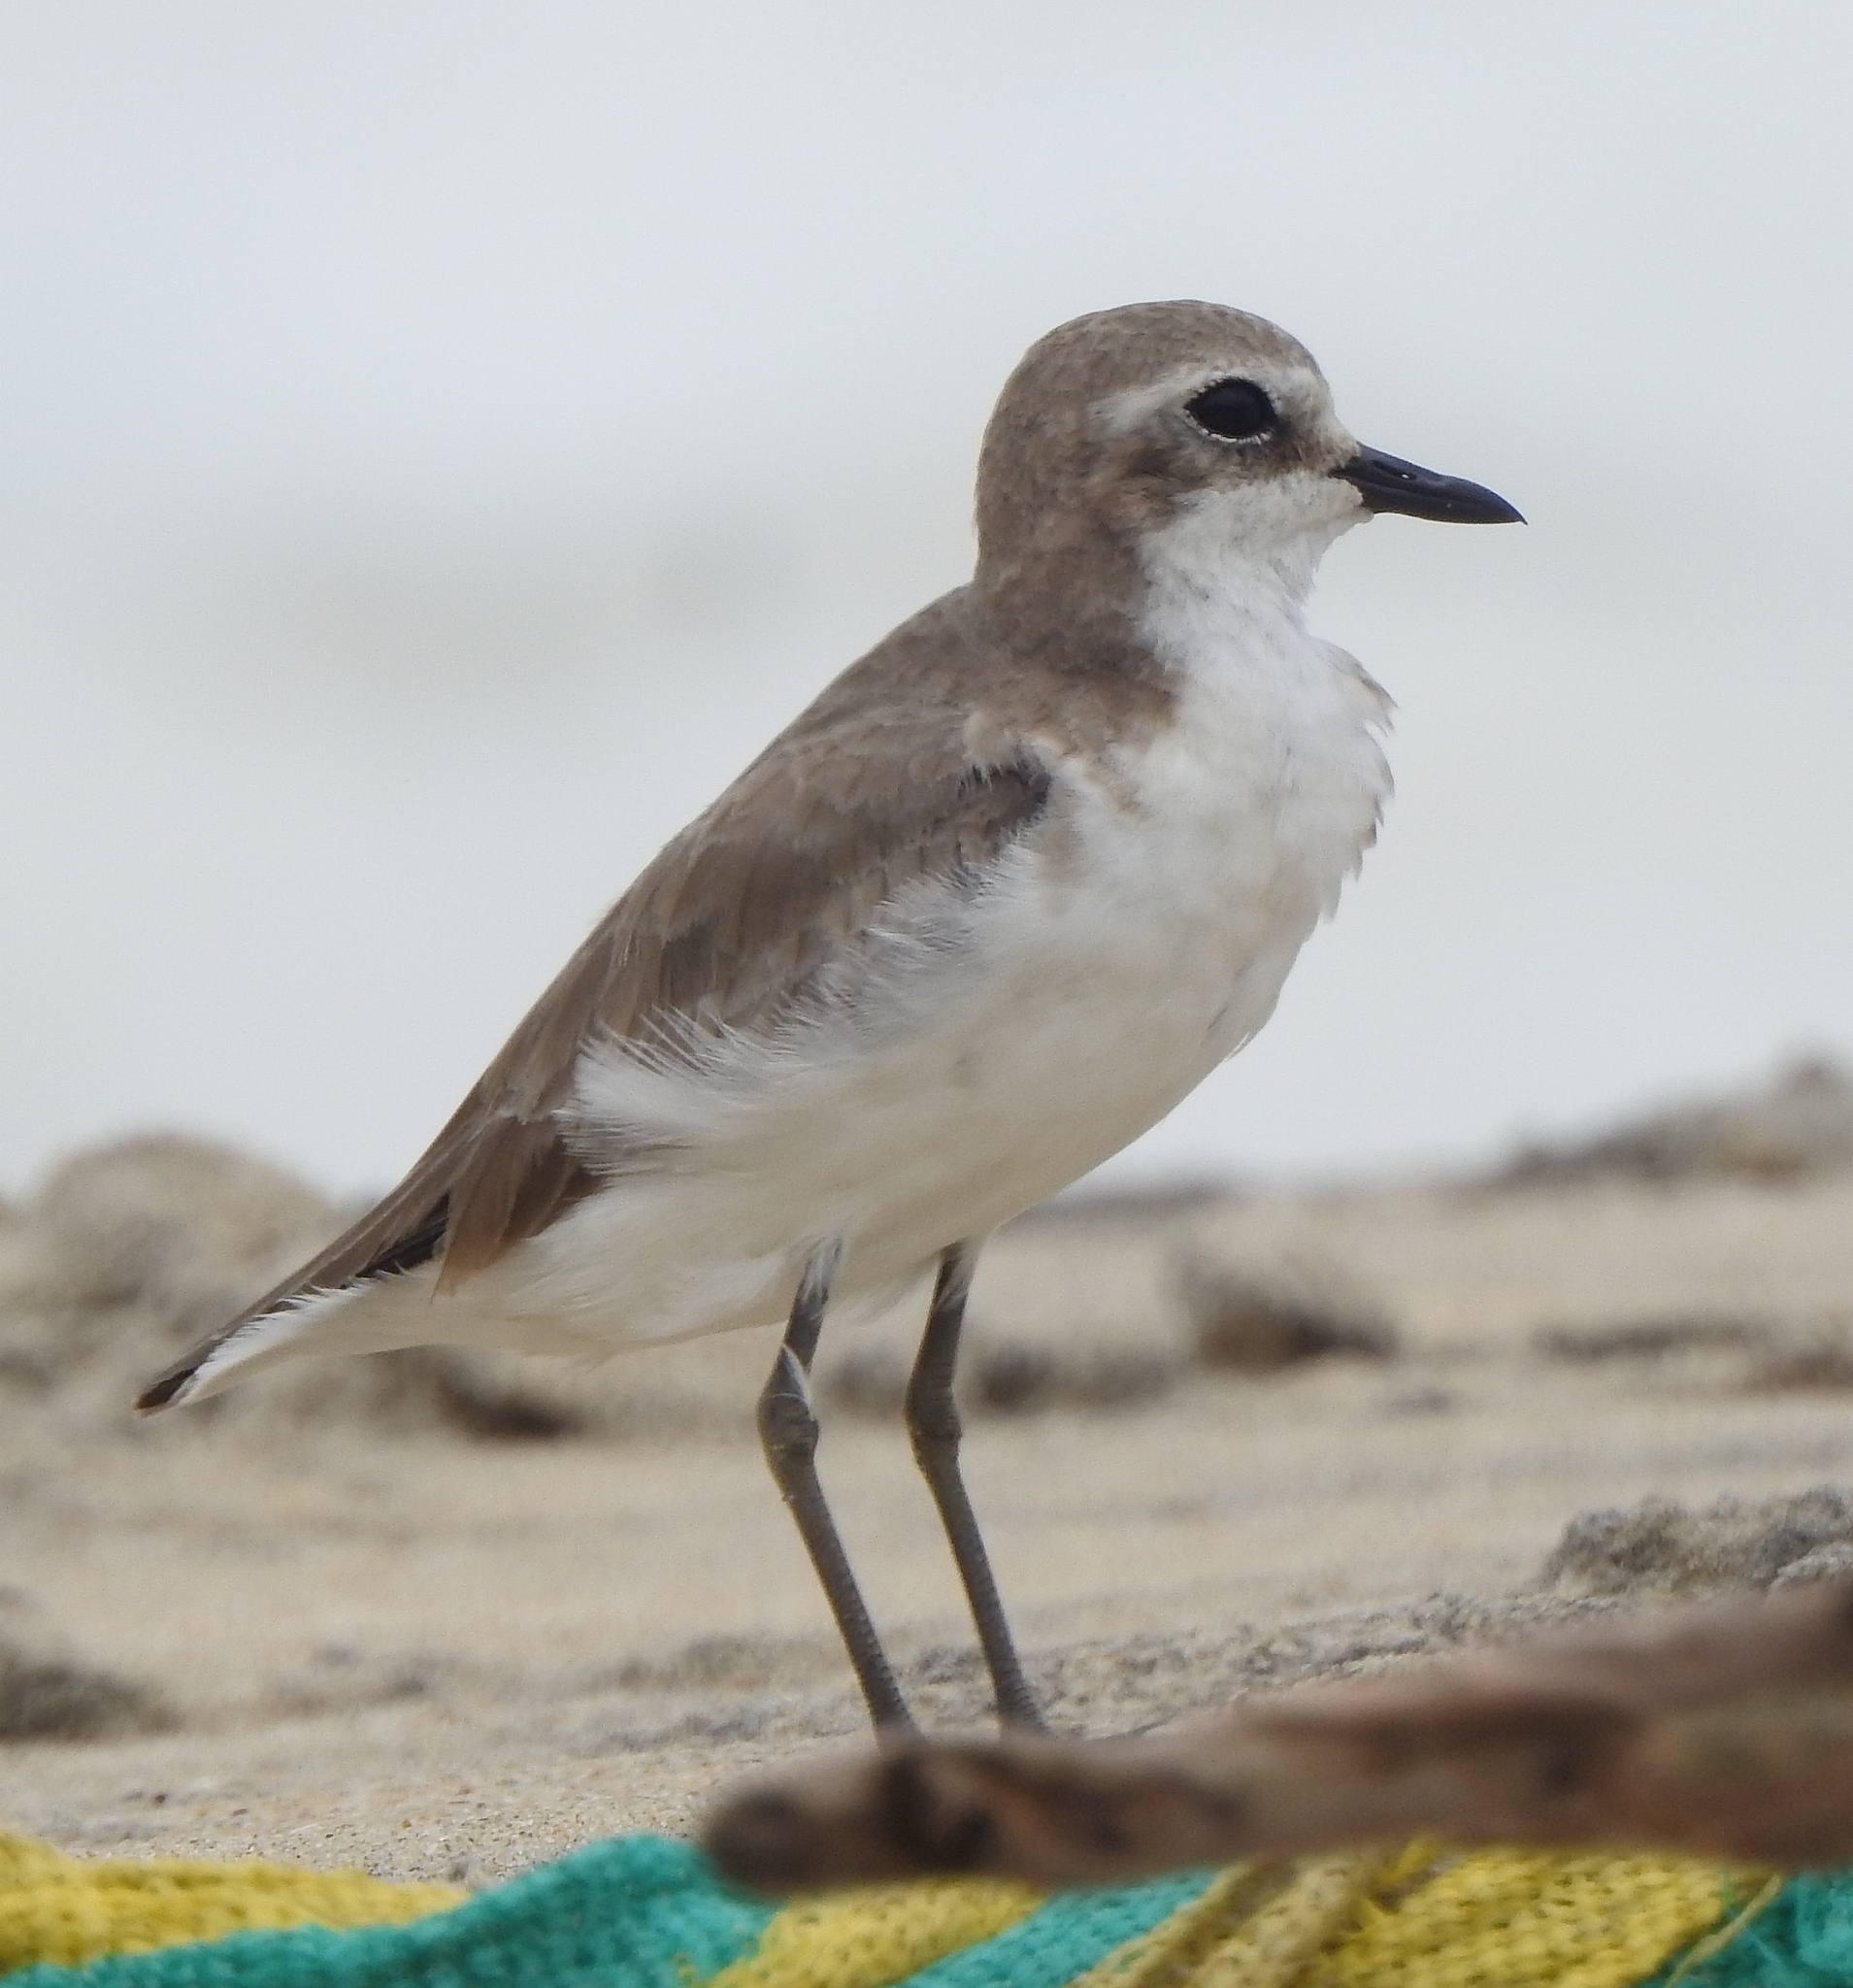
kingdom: Animalia
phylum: Chordata
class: Aves
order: Charadriiformes
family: Charadriidae
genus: Anarhynchus
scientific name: Anarhynchus
